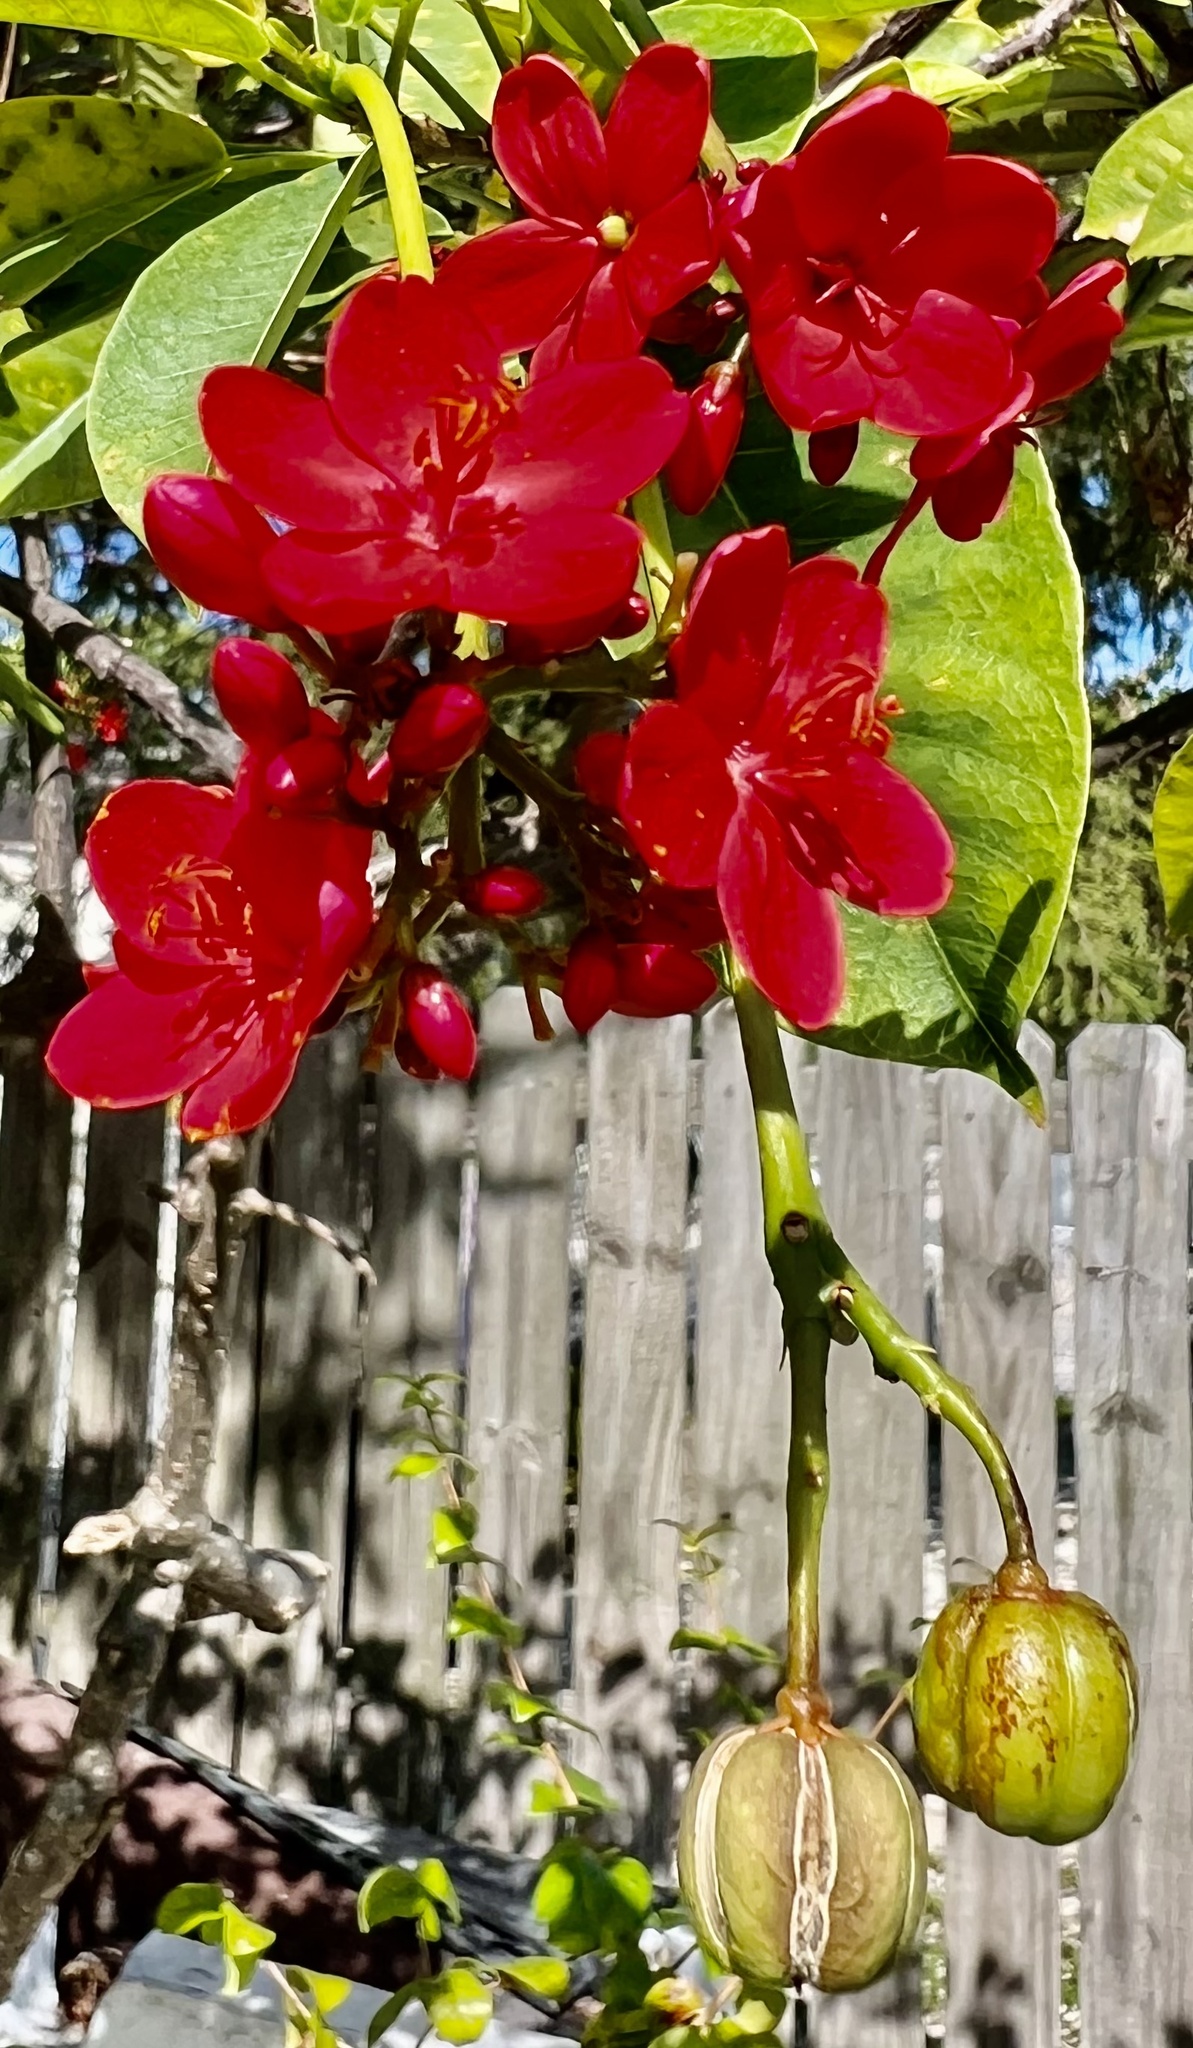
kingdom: Plantae
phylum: Tracheophyta
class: Magnoliopsida
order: Malpighiales
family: Euphorbiaceae
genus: Jatropha
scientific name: Jatropha integerrima
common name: Peregrina
